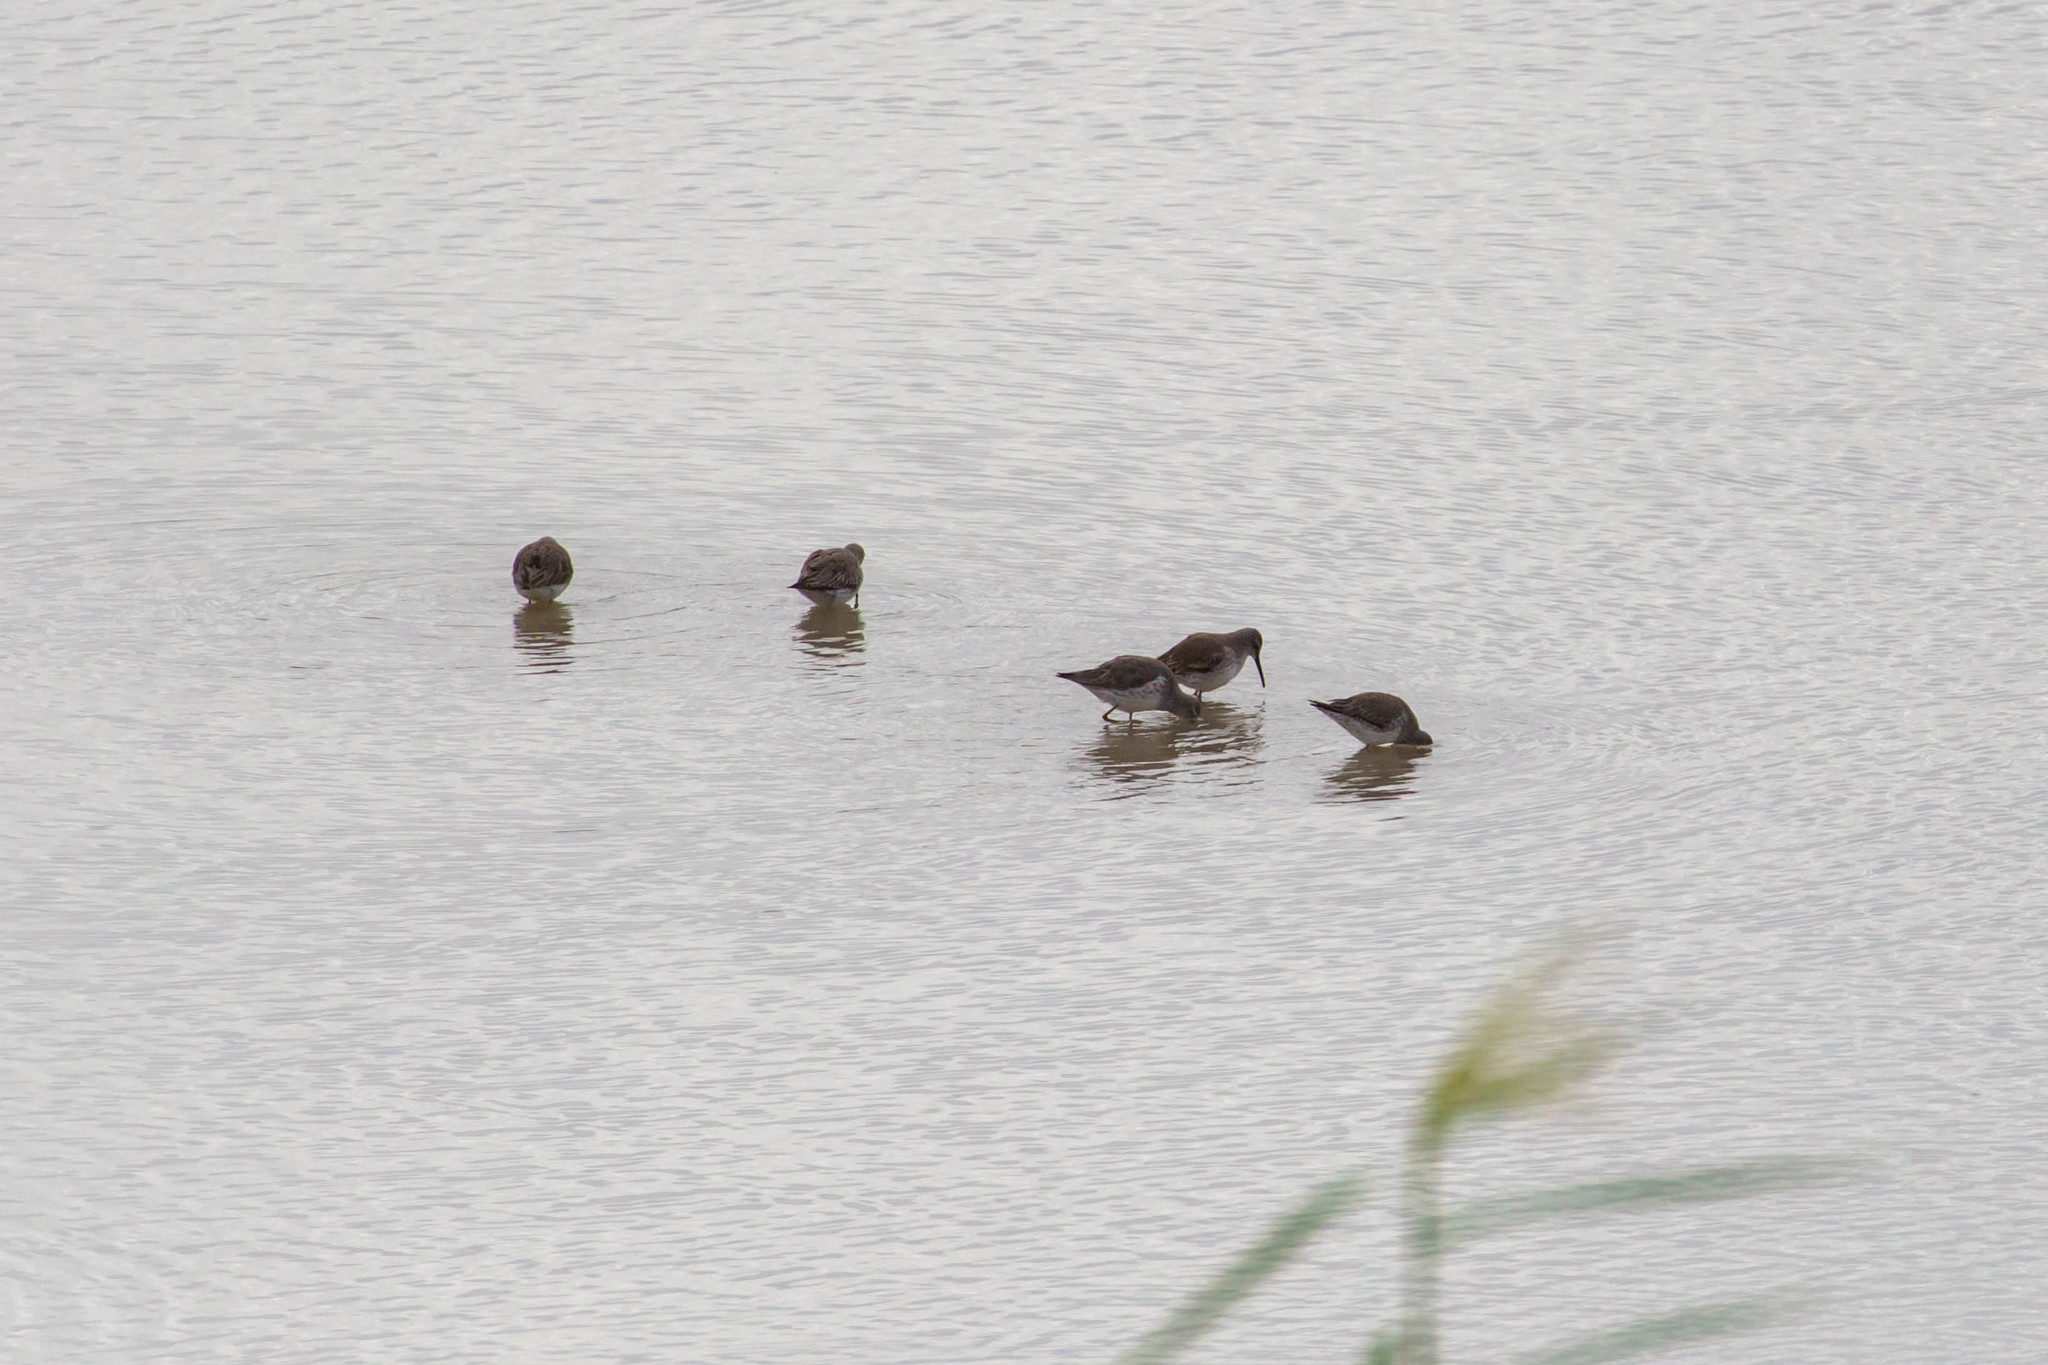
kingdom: Animalia
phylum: Chordata
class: Aves
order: Charadriiformes
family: Scolopacidae
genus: Calidris
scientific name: Calidris himantopus
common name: Stilt sandpiper
